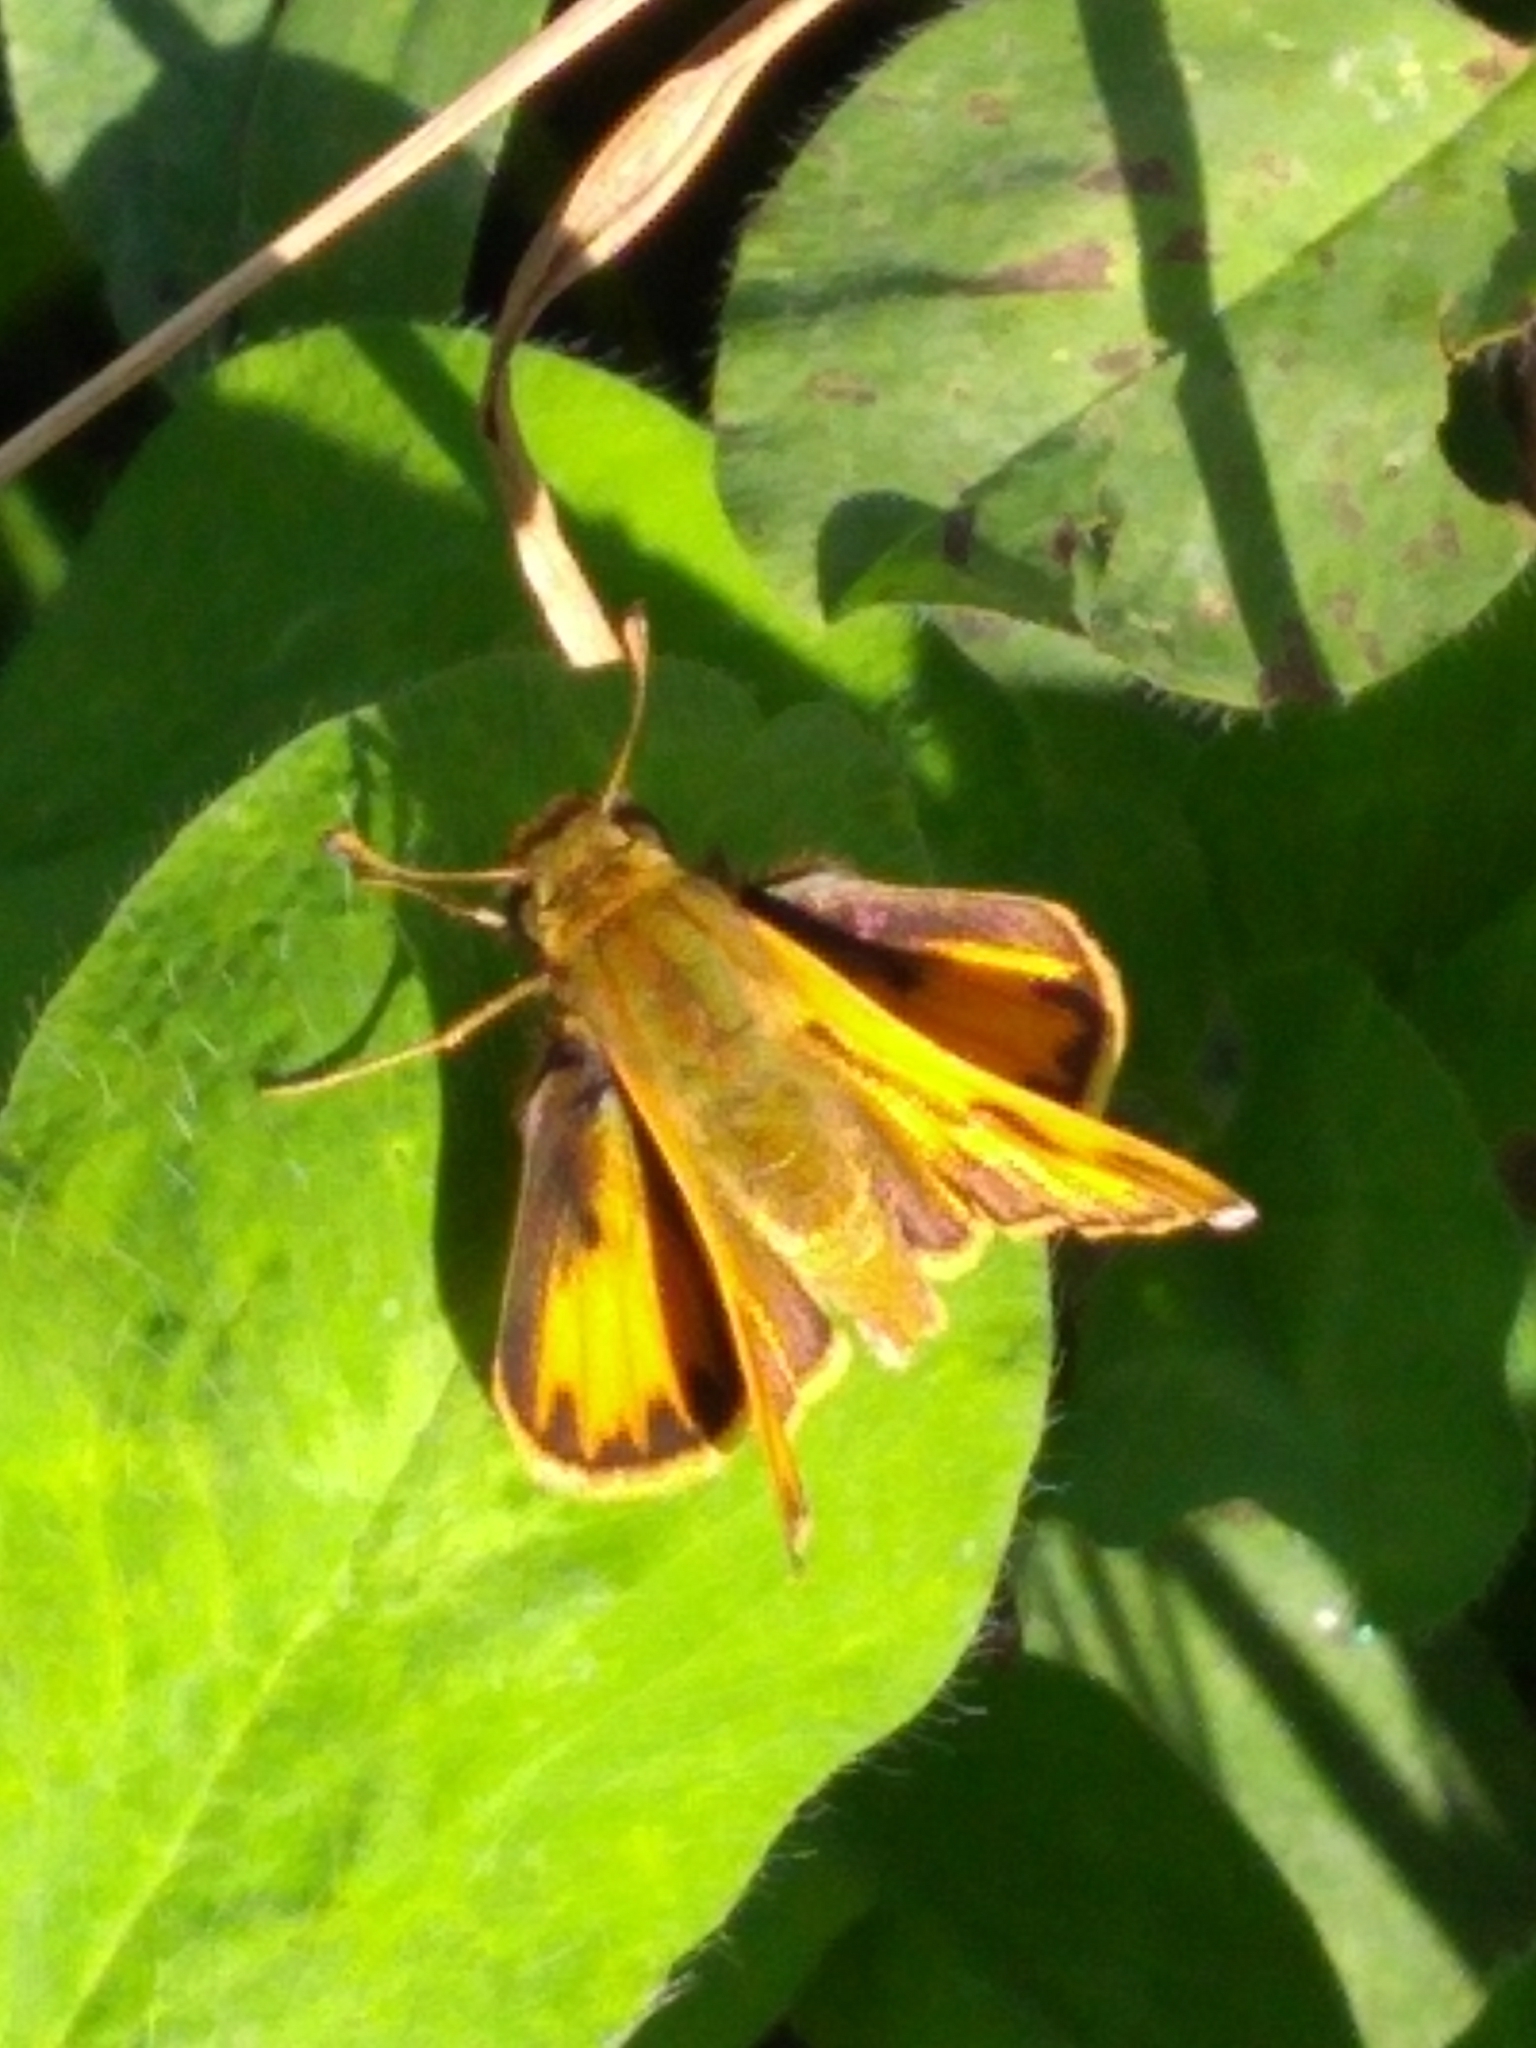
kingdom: Animalia
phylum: Arthropoda
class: Insecta
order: Lepidoptera
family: Hesperiidae
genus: Hylephila
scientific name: Hylephila phyleus
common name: Fiery skipper
